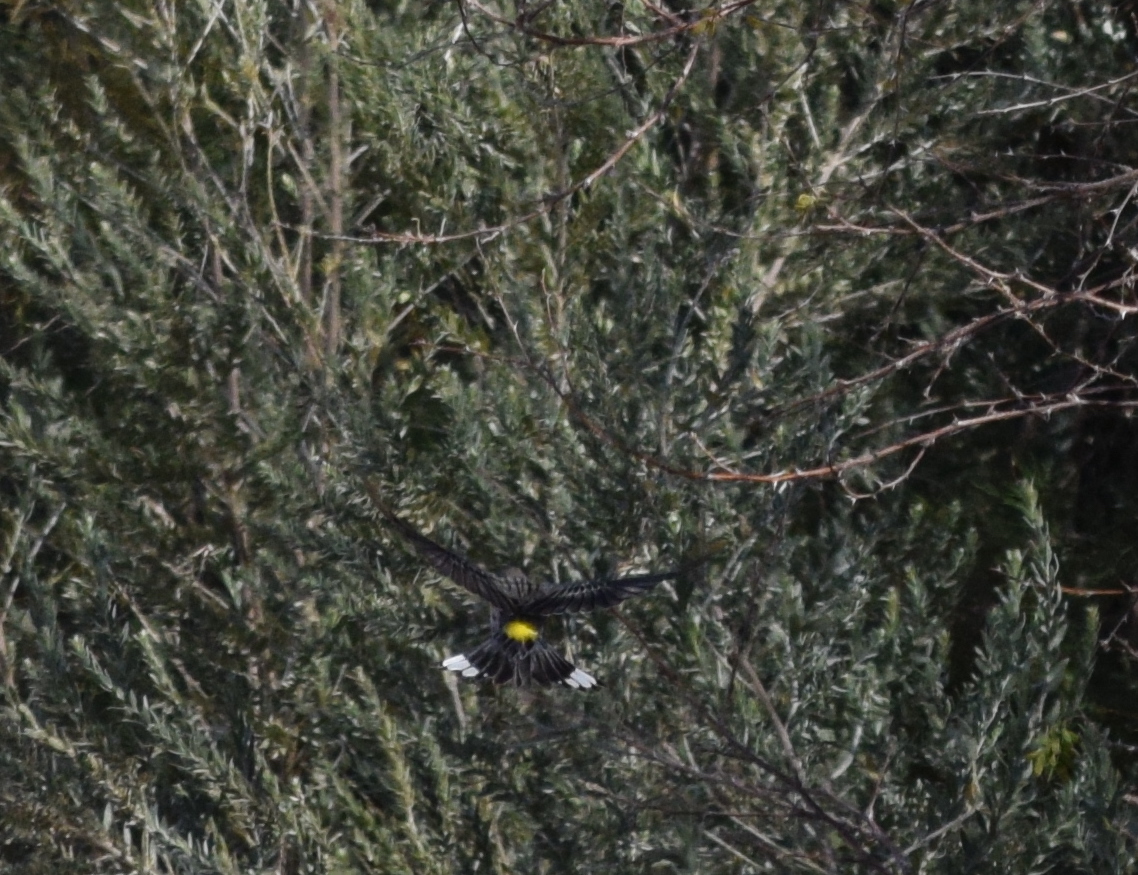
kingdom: Animalia
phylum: Chordata
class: Aves
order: Passeriformes
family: Parulidae
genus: Setophaga
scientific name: Setophaga coronata
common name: Myrtle warbler
